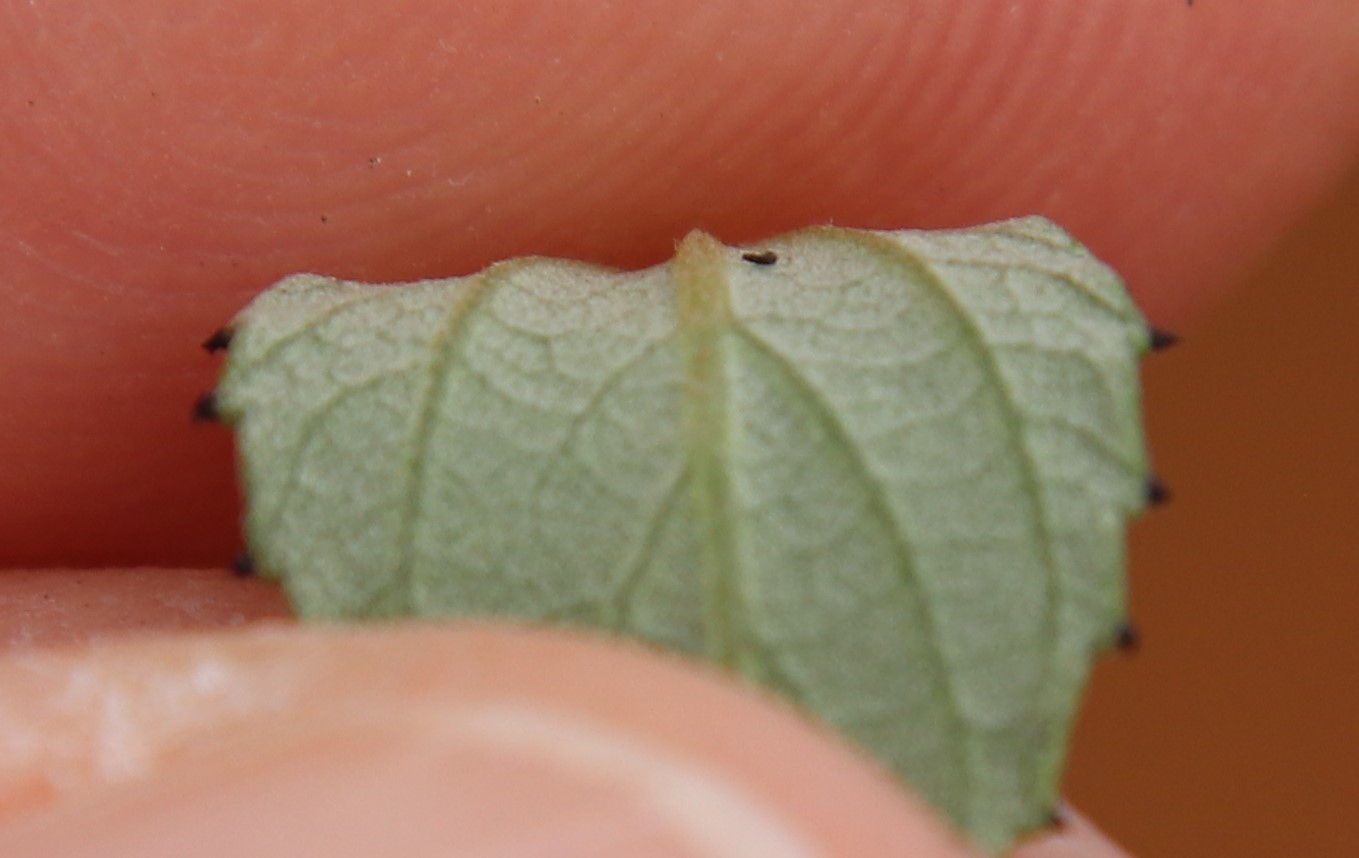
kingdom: Plantae
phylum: Tracheophyta
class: Magnoliopsida
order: Rosales
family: Rhamnaceae
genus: Ceanothus
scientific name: Ceanothus tomentosus
